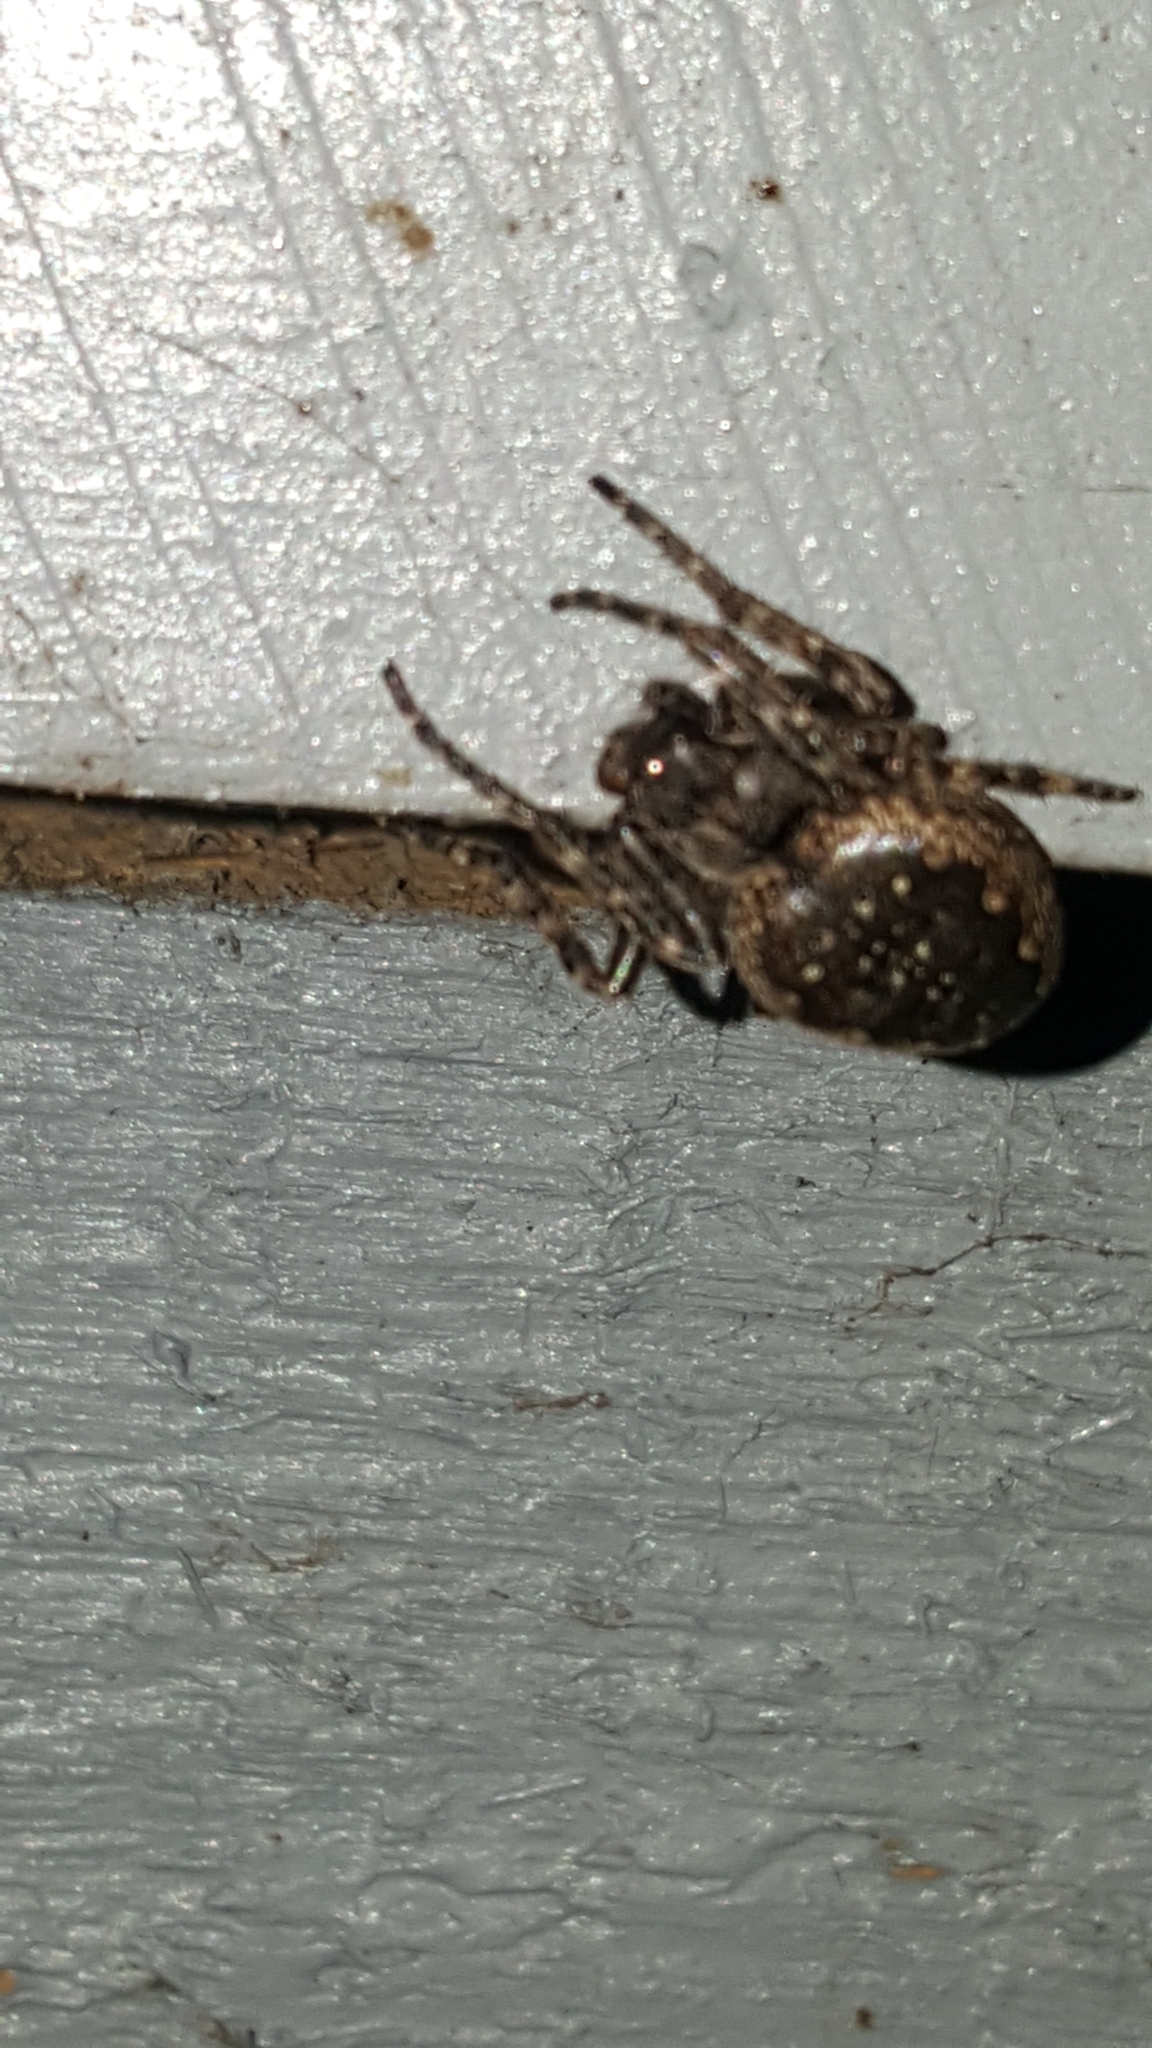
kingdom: Animalia
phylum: Arthropoda
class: Arachnida
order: Araneae
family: Araneidae
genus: Nuctenea
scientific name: Nuctenea umbratica
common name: Toad spider
